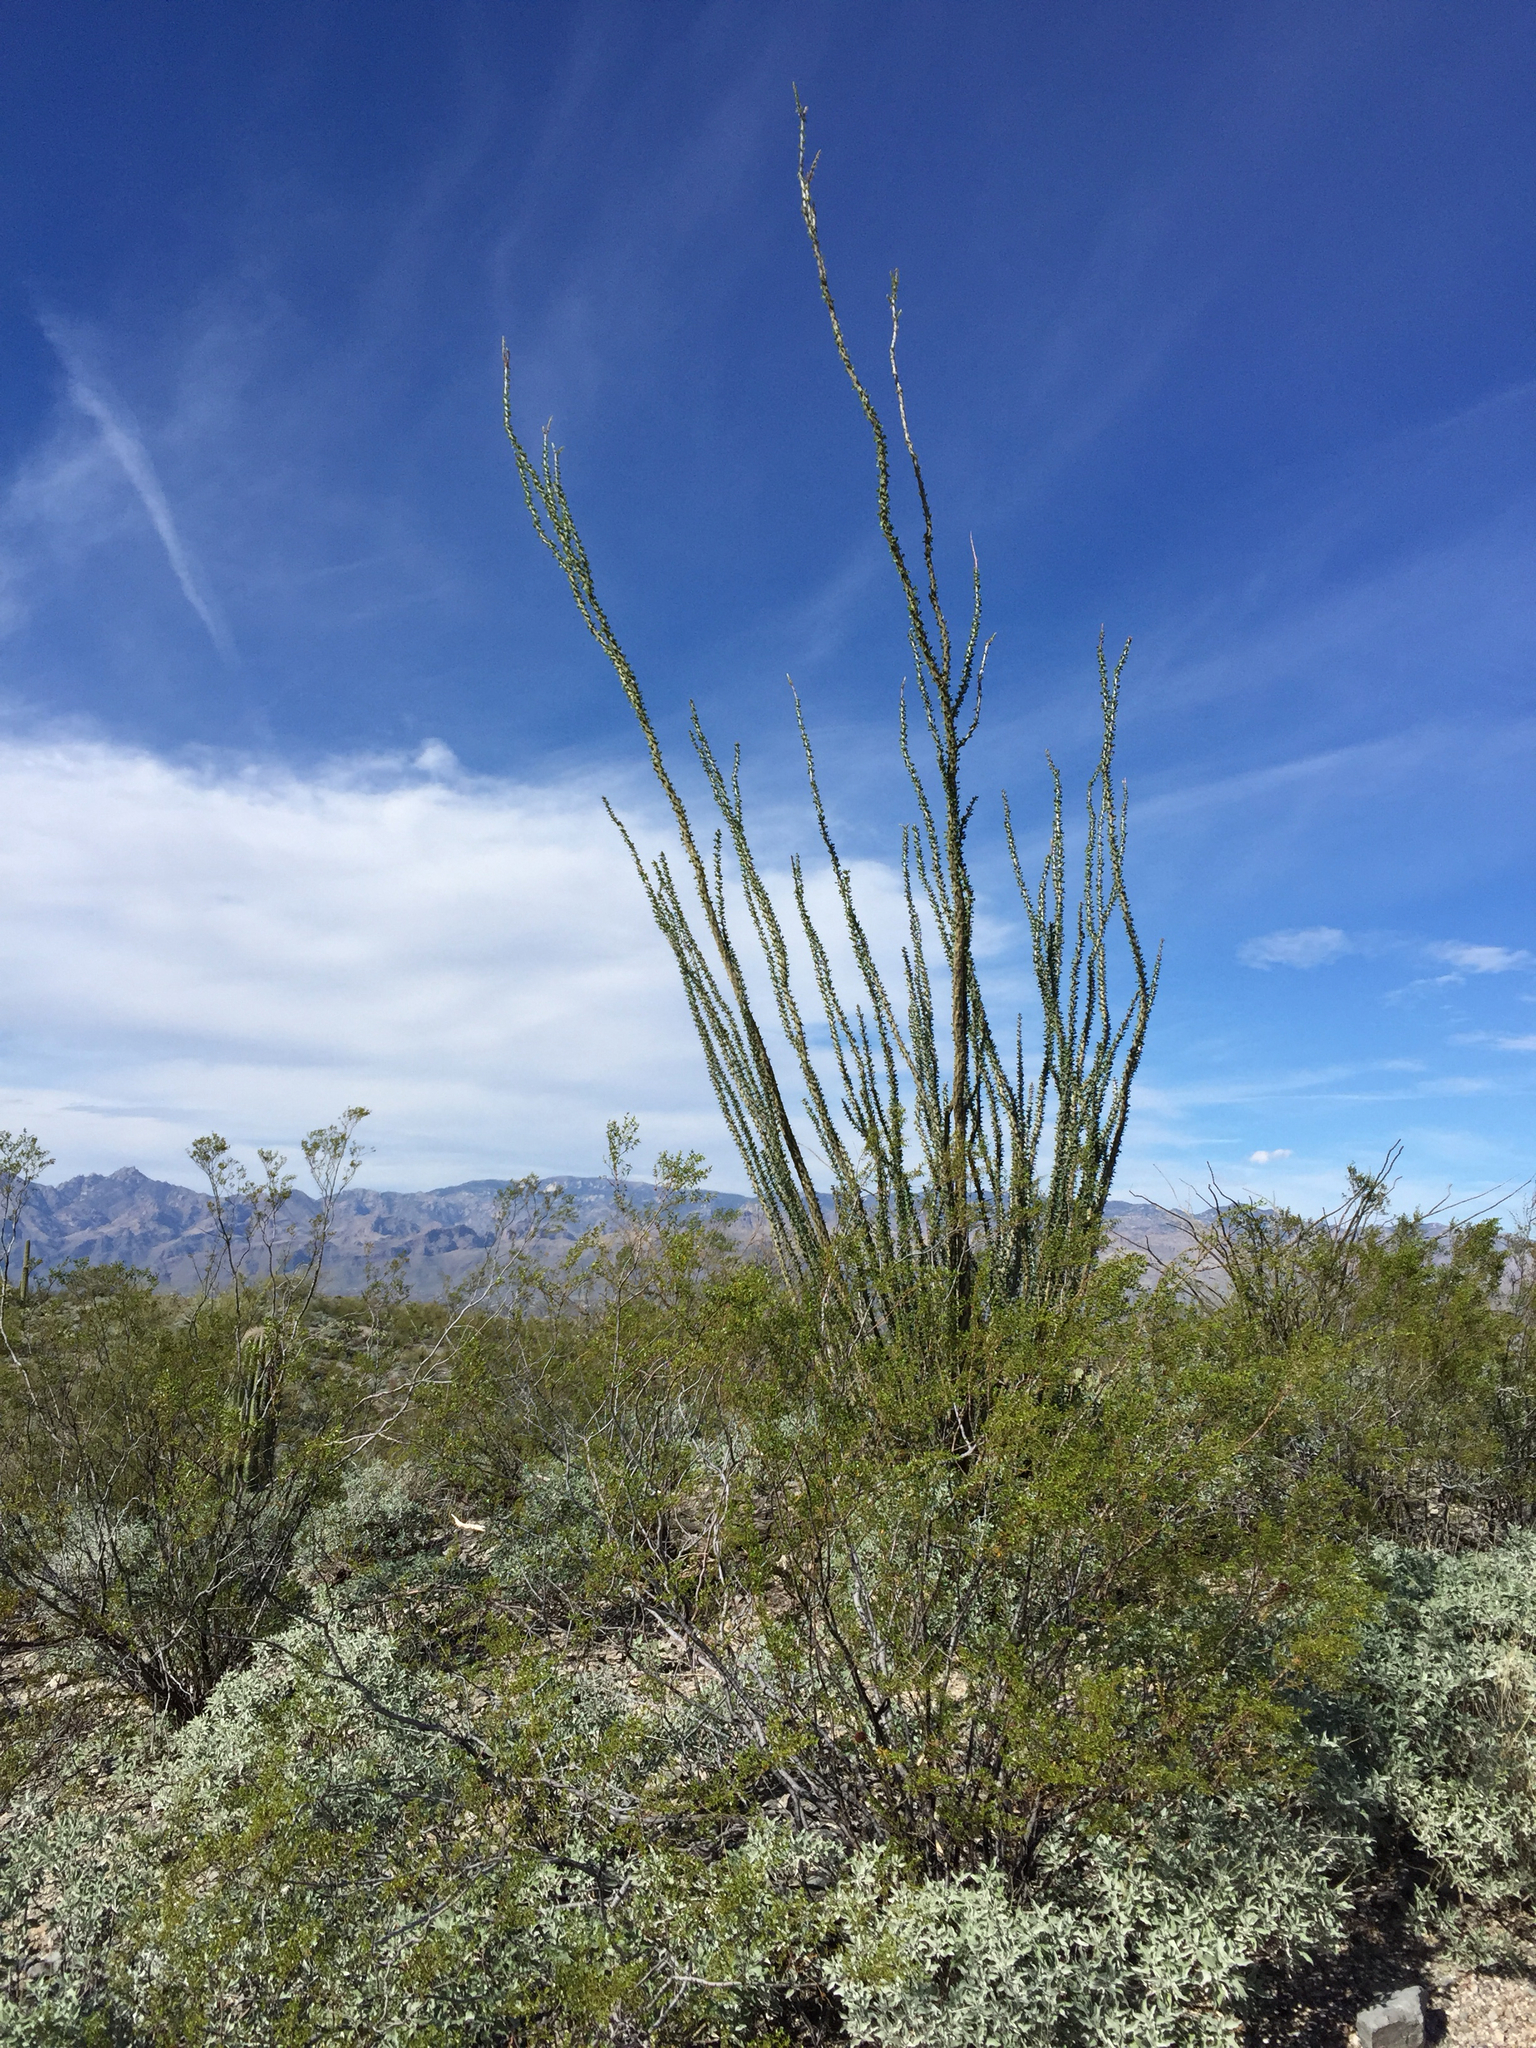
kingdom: Plantae
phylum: Tracheophyta
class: Magnoliopsida
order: Ericales
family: Fouquieriaceae
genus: Fouquieria
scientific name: Fouquieria splendens
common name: Vine-cactus
